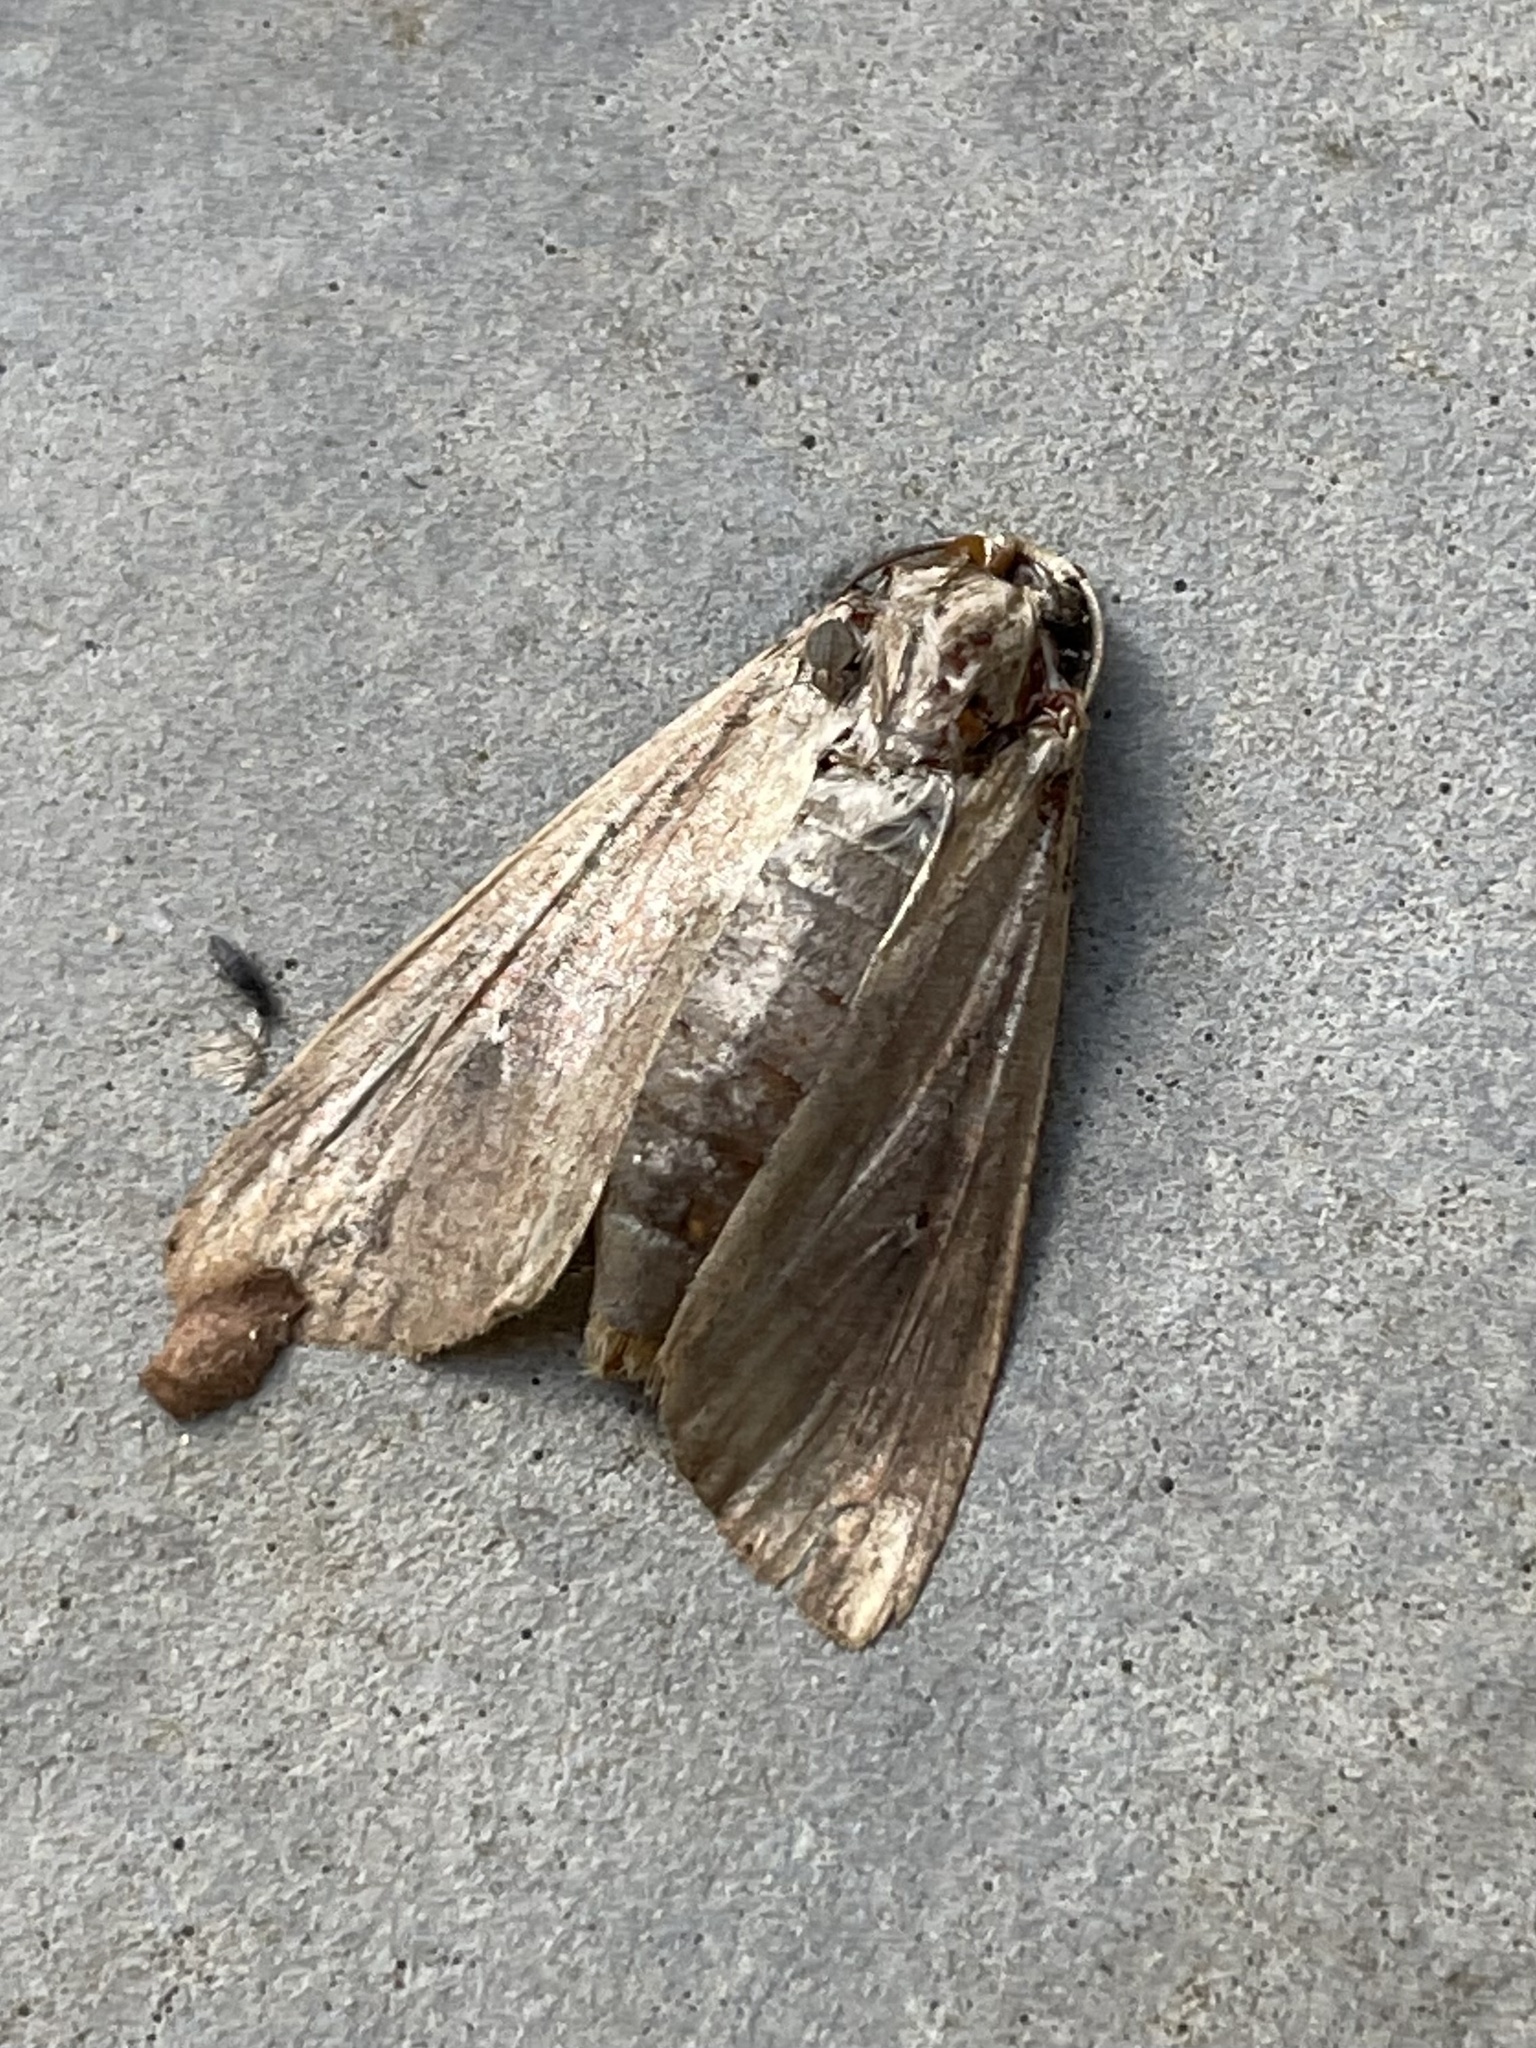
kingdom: Animalia
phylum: Arthropoda
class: Insecta
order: Lepidoptera
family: Noctuidae
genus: Mythimna
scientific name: Mythimna unipuncta
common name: White-speck
